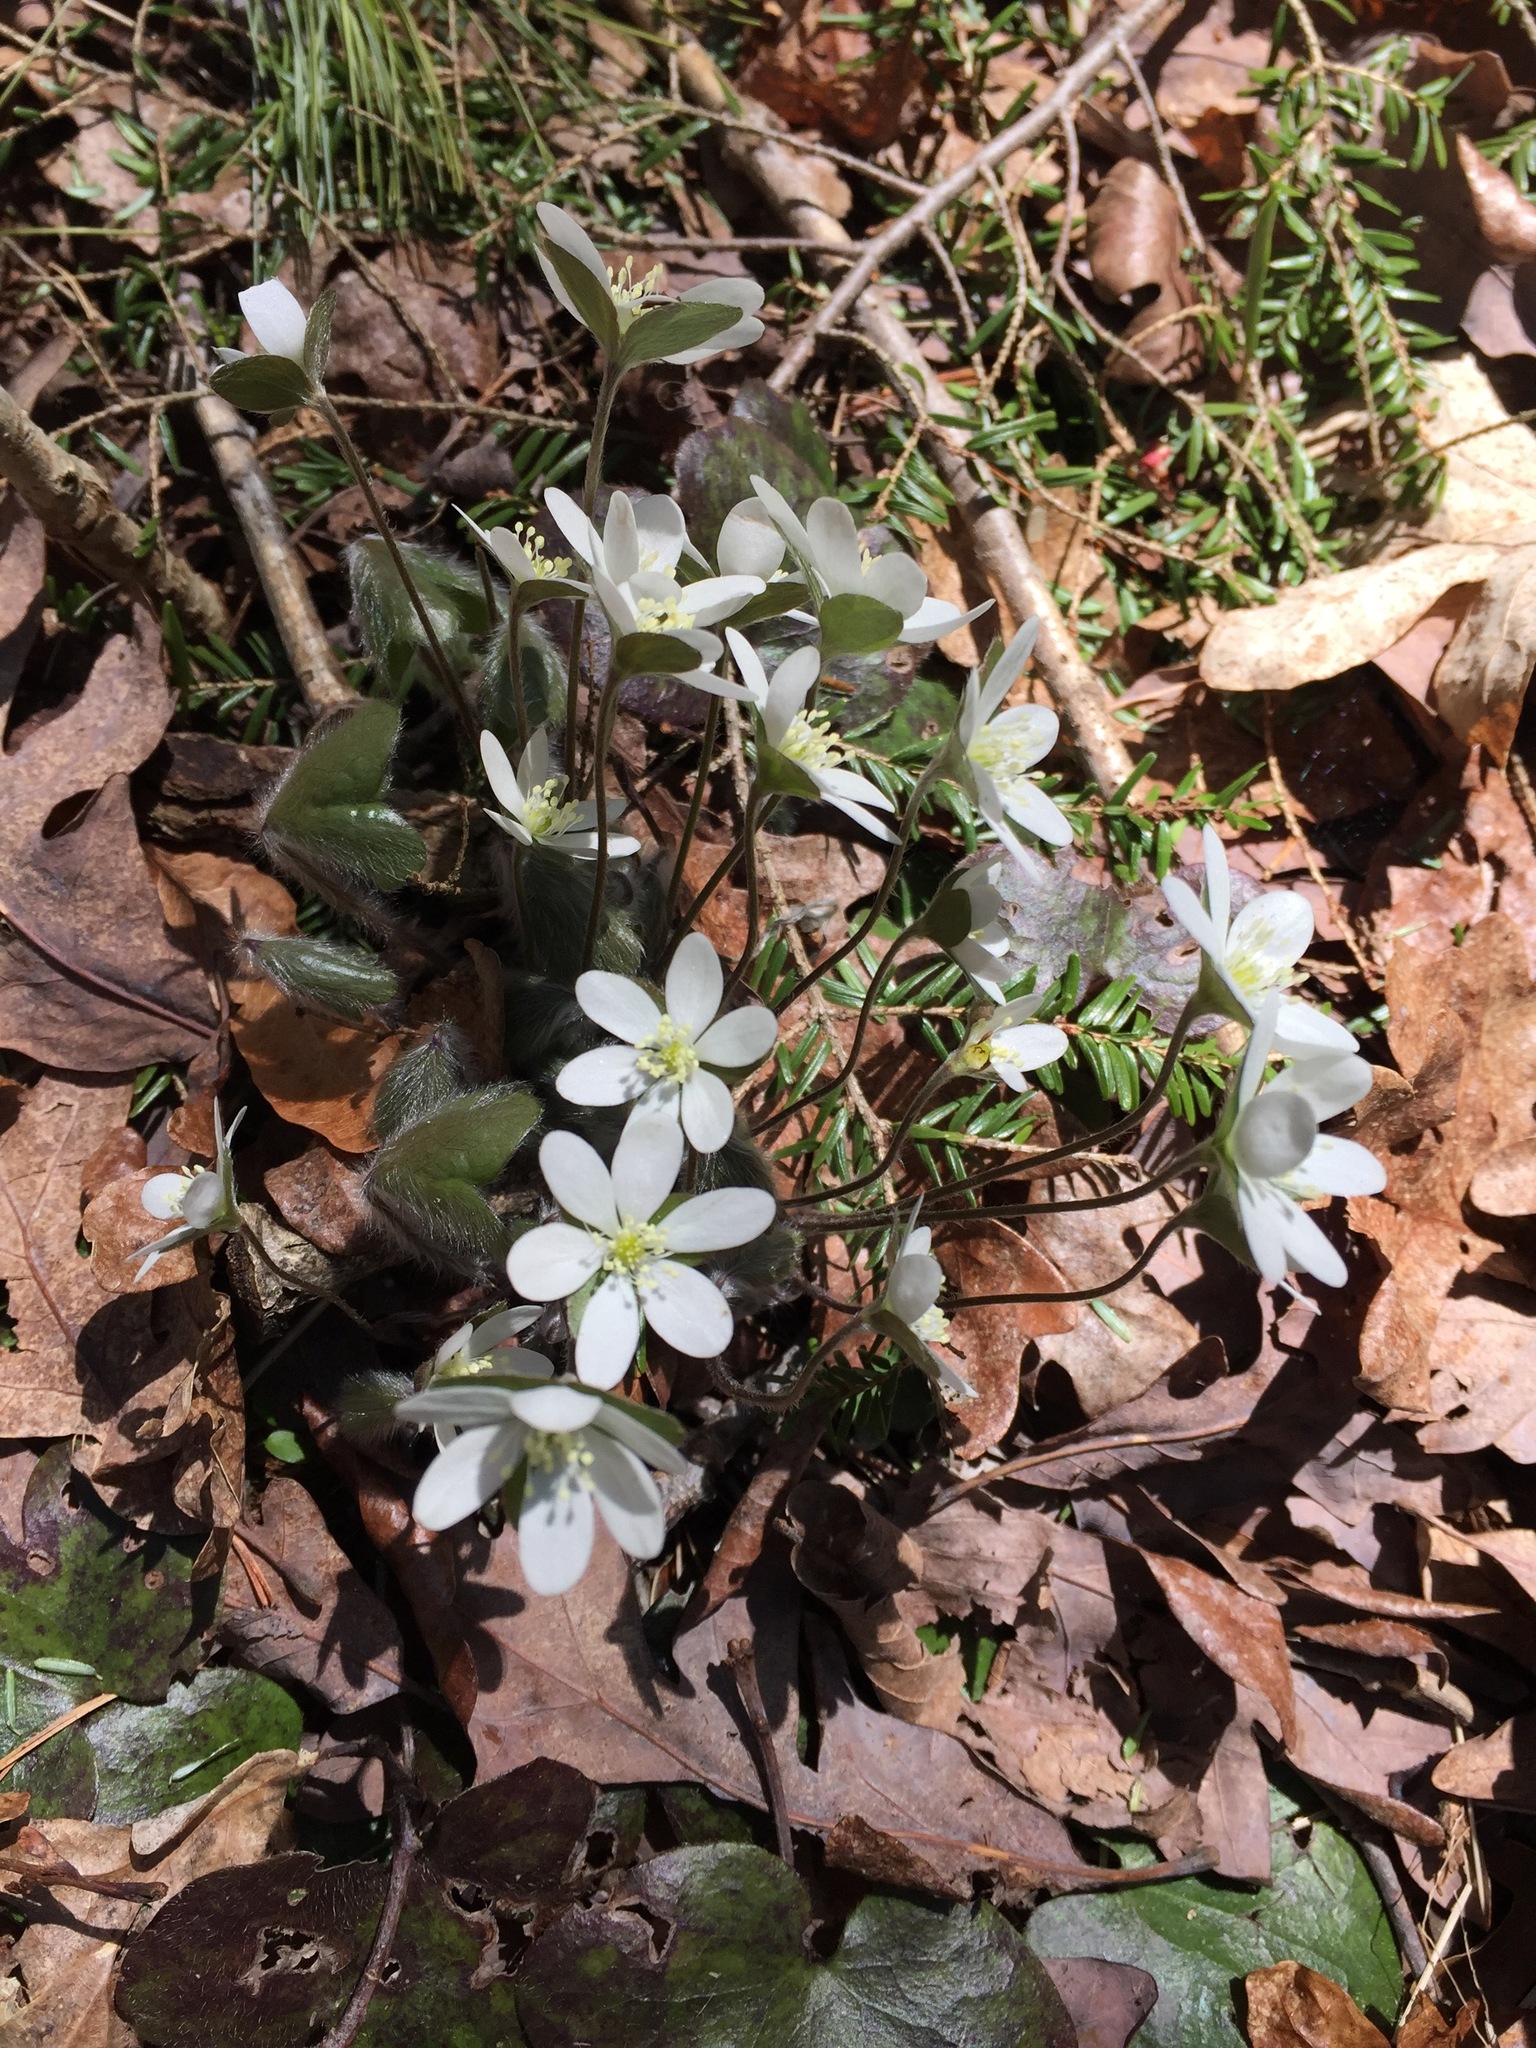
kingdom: Plantae
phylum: Tracheophyta
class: Magnoliopsida
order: Ranunculales
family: Ranunculaceae
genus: Hepatica
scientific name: Hepatica americana
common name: American hepatica
